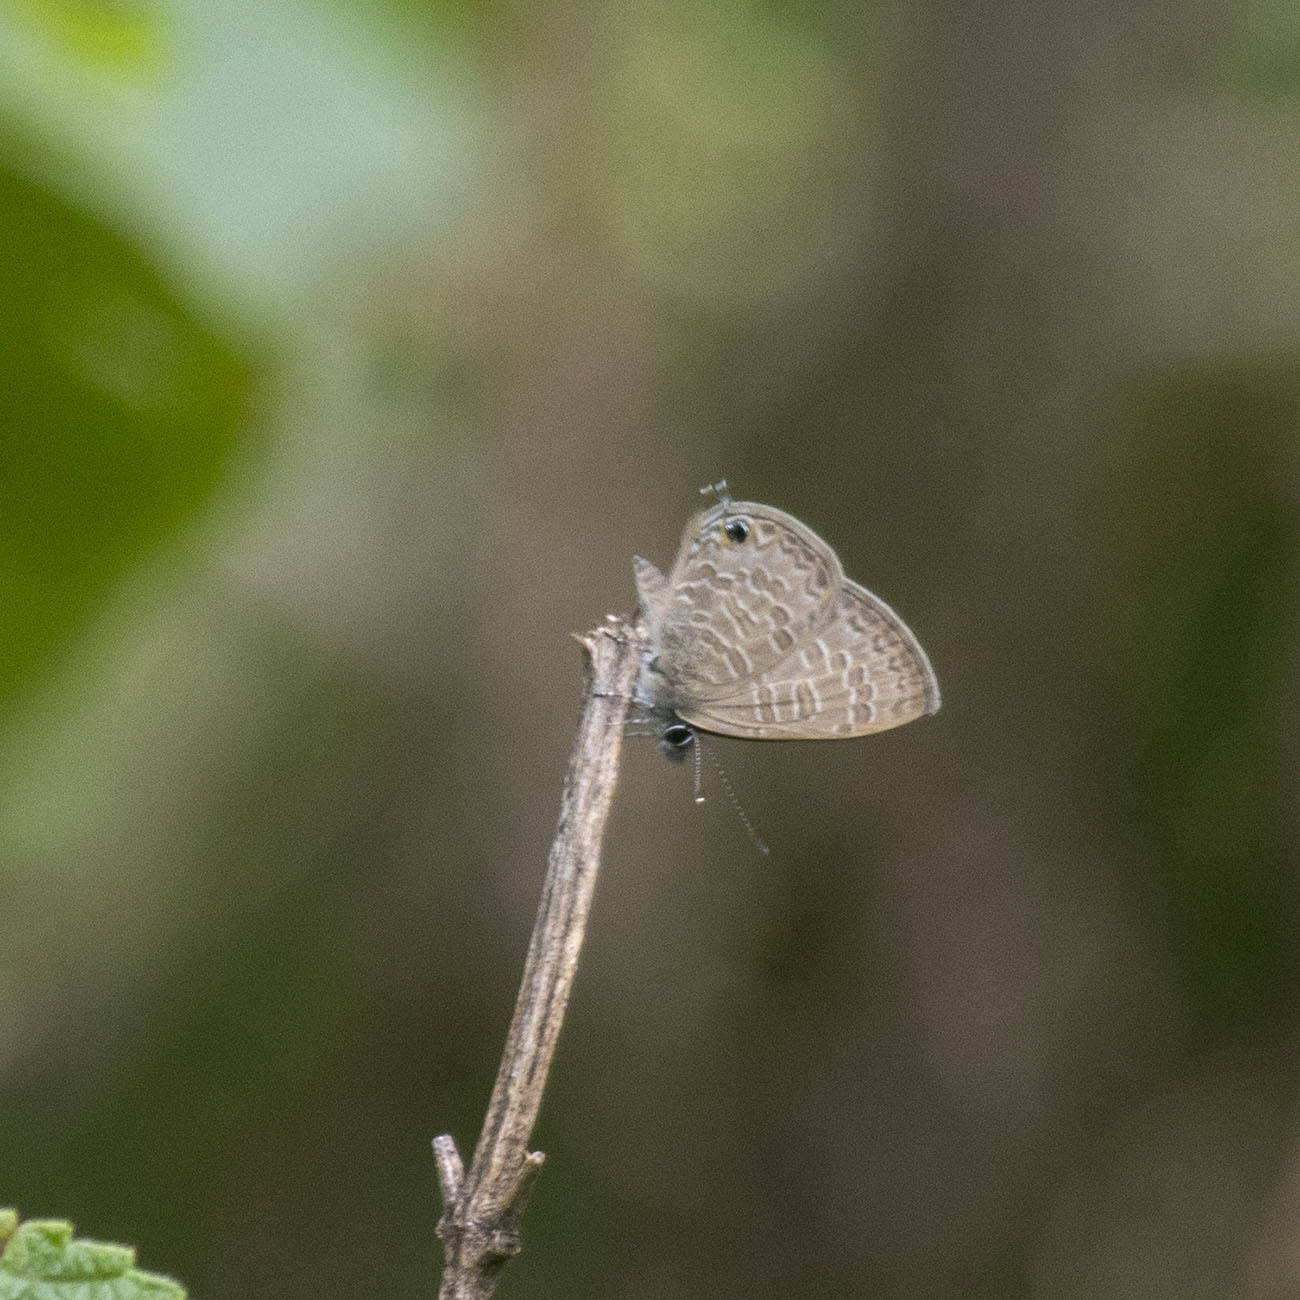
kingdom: Animalia
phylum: Arthropoda
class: Insecta
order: Lepidoptera
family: Lycaenidae
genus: Prosotas
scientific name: Prosotas nora
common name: Common line blue
